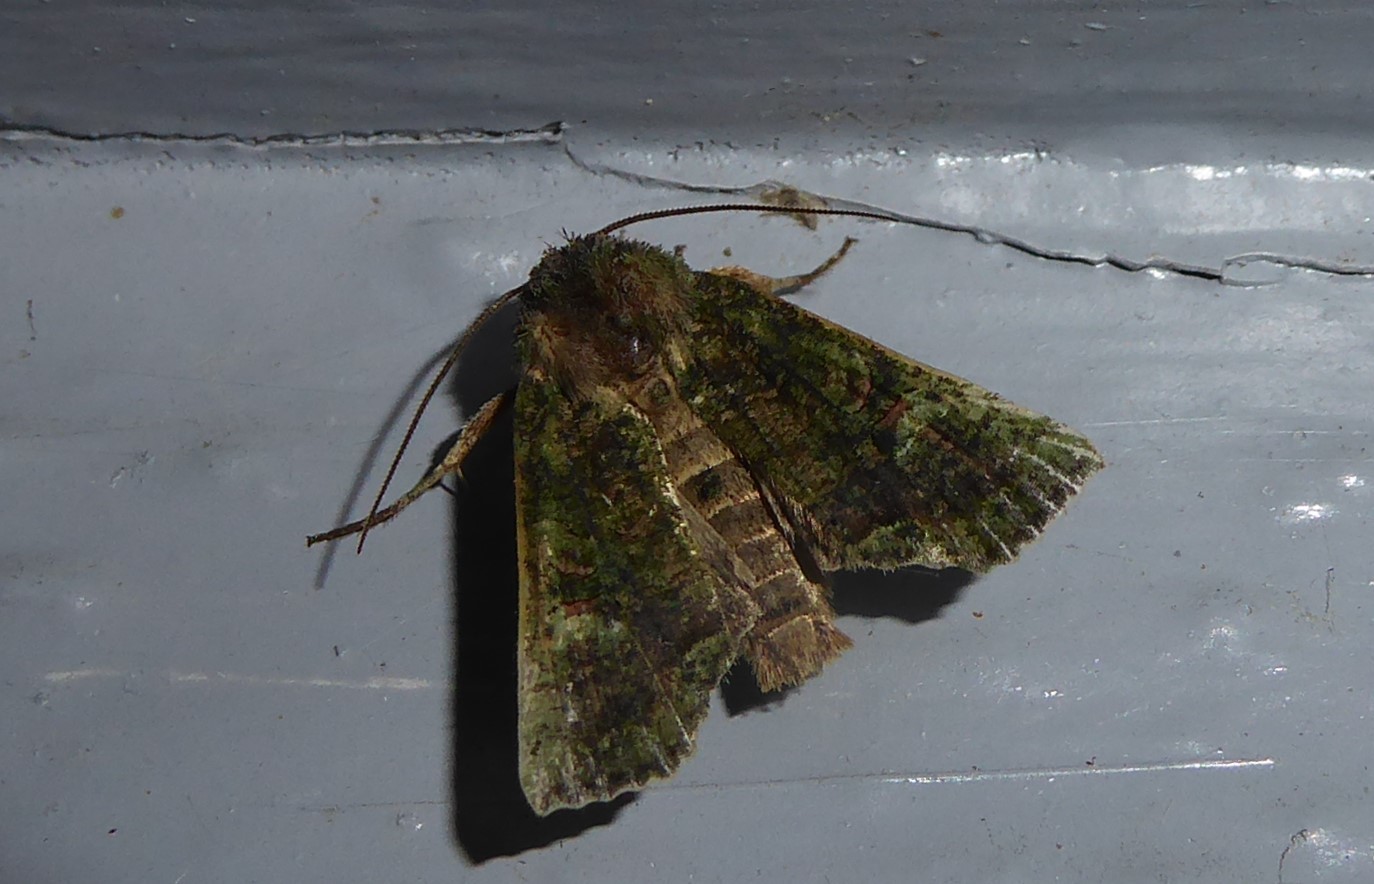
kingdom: Animalia
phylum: Arthropoda
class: Insecta
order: Lepidoptera
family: Noctuidae
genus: Meterana
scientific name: Meterana levis
